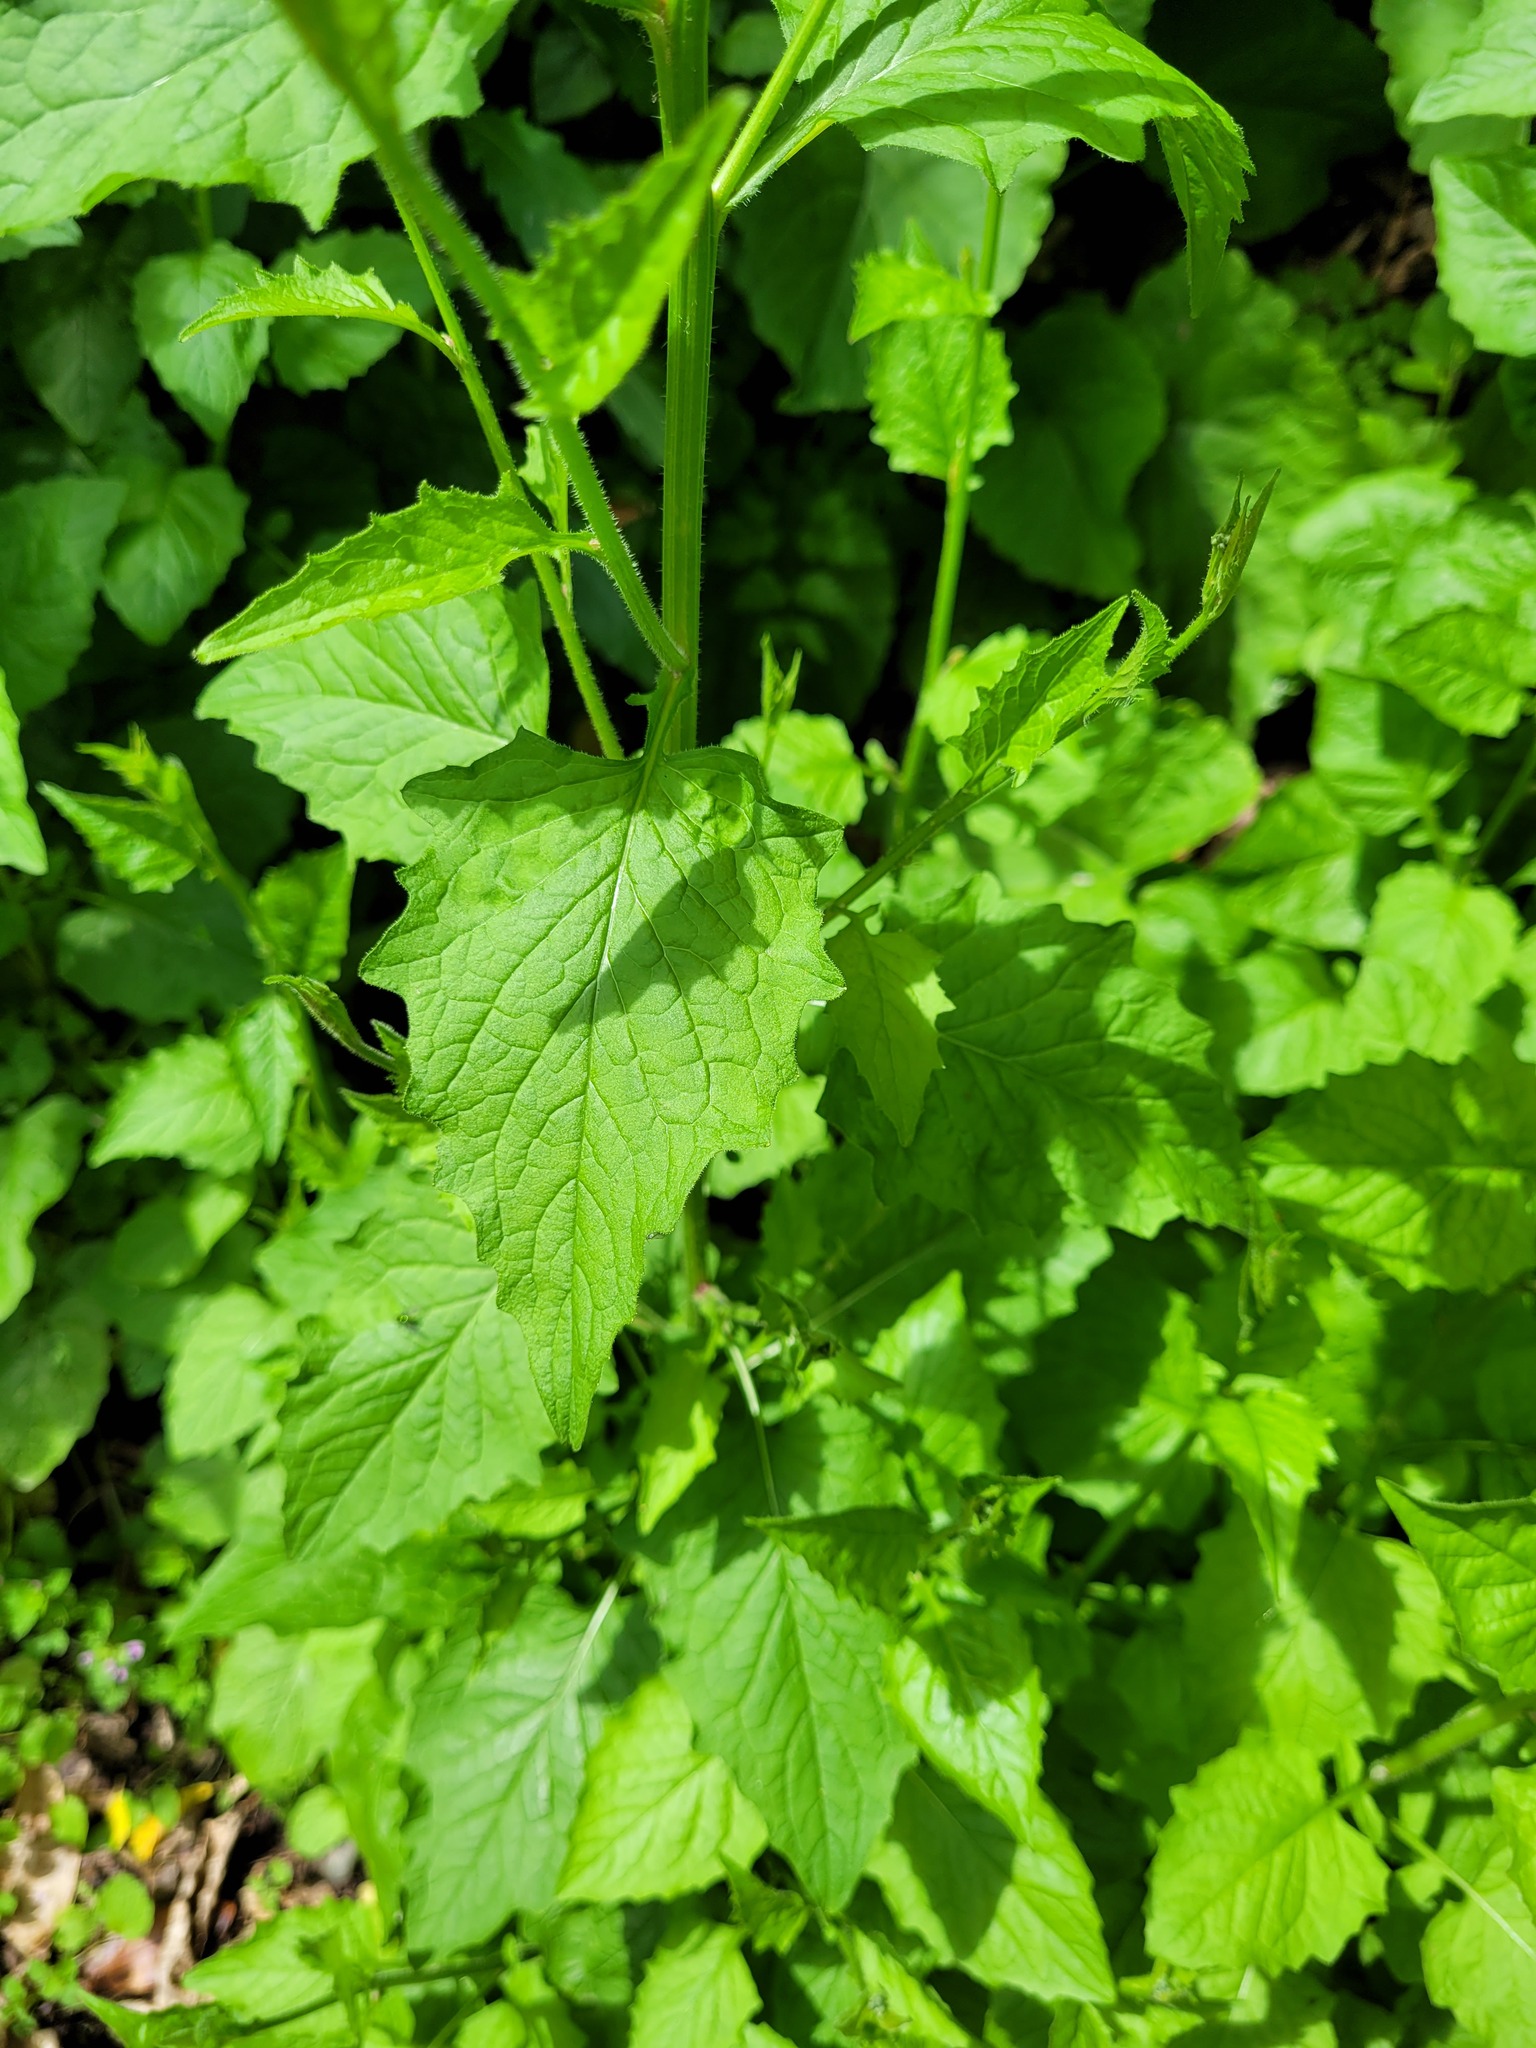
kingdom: Plantae
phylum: Tracheophyta
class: Magnoliopsida
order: Asterales
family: Asteraceae
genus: Lapsana
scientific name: Lapsana communis
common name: Nipplewort
